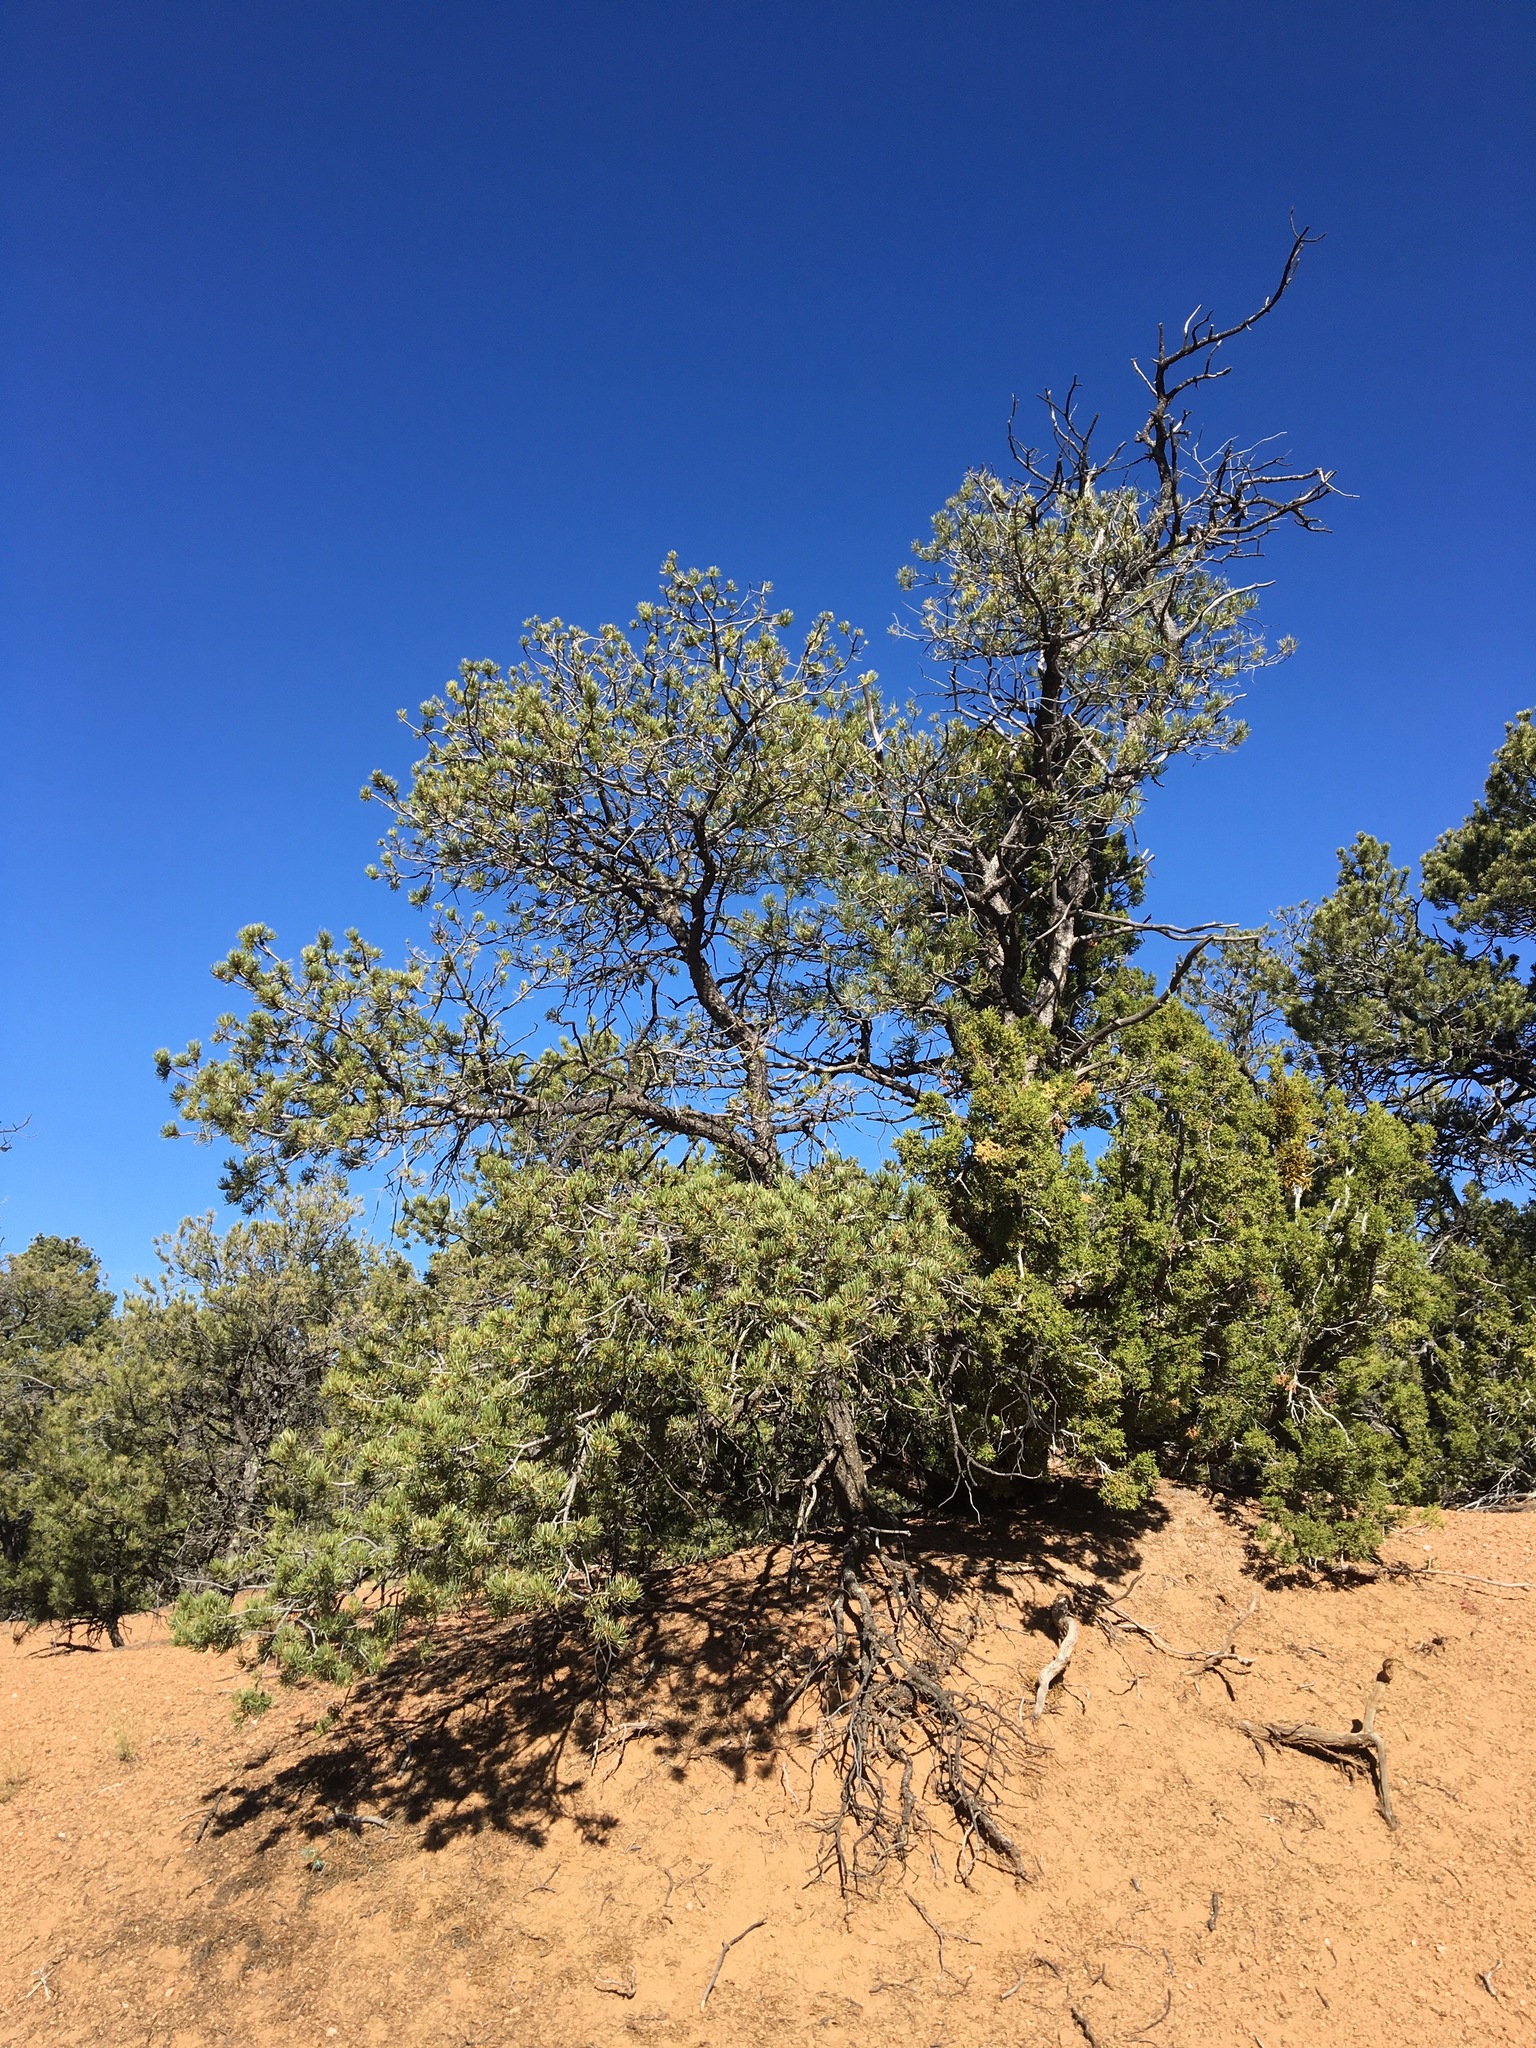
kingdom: Plantae
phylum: Tracheophyta
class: Pinopsida
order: Pinales
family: Pinaceae
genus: Pinus
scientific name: Pinus edulis
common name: Colorado pinyon
